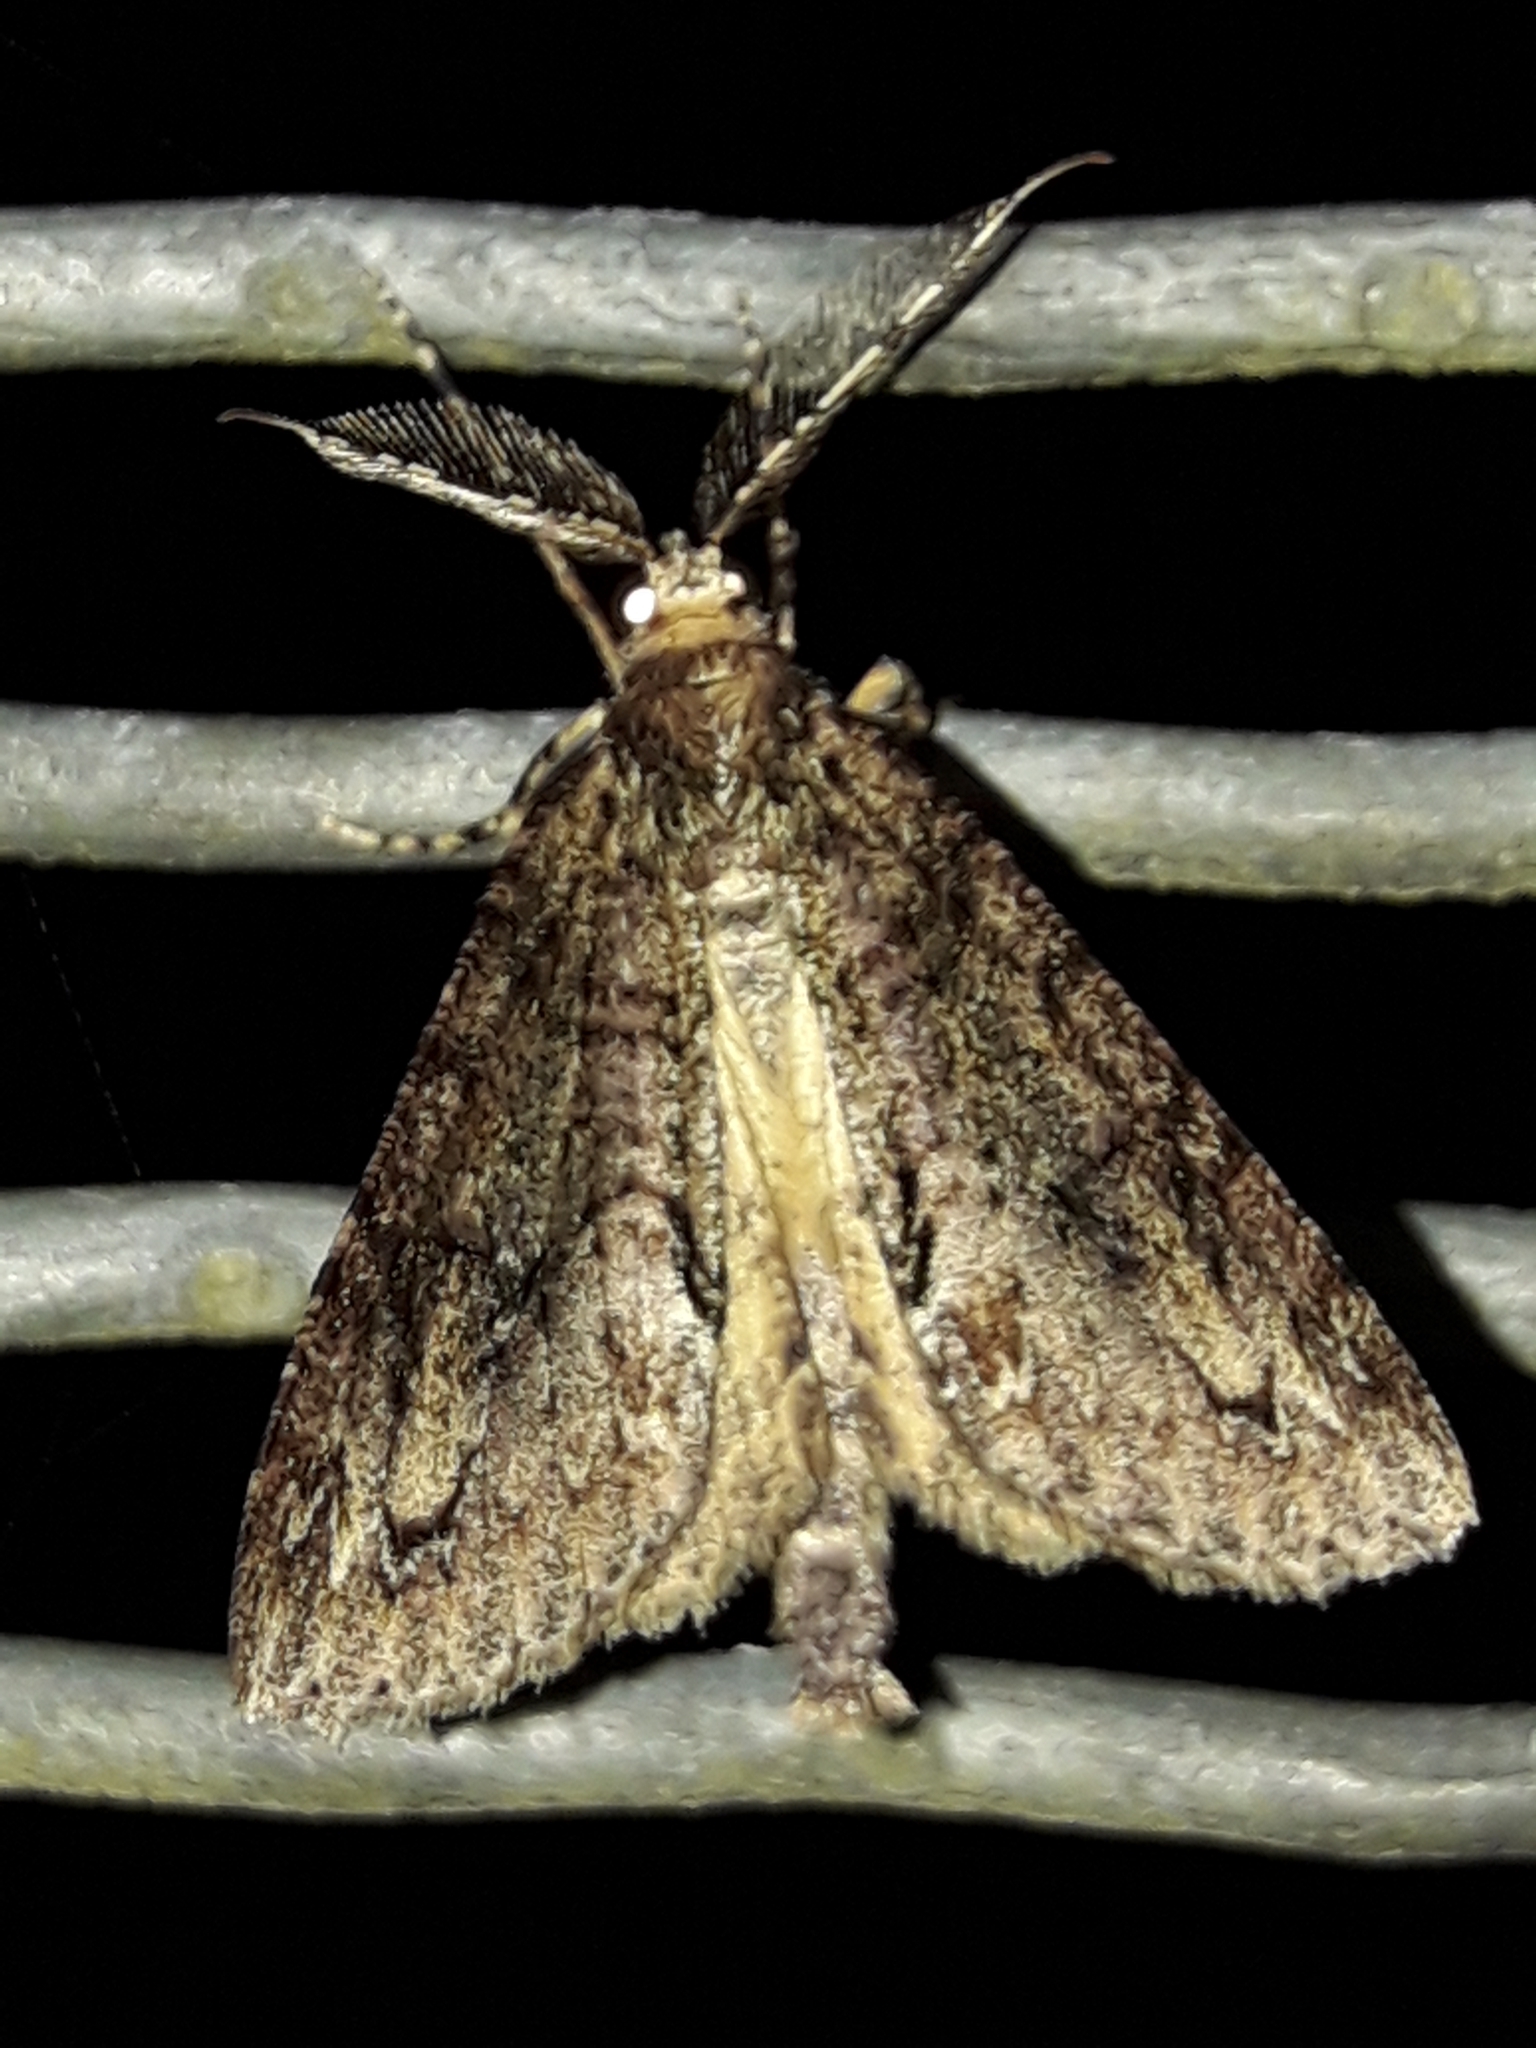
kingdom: Animalia
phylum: Arthropoda
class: Insecta
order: Lepidoptera
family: Geometridae
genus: Pseudocoremia
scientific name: Pseudocoremia suavis
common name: Common forest looper
